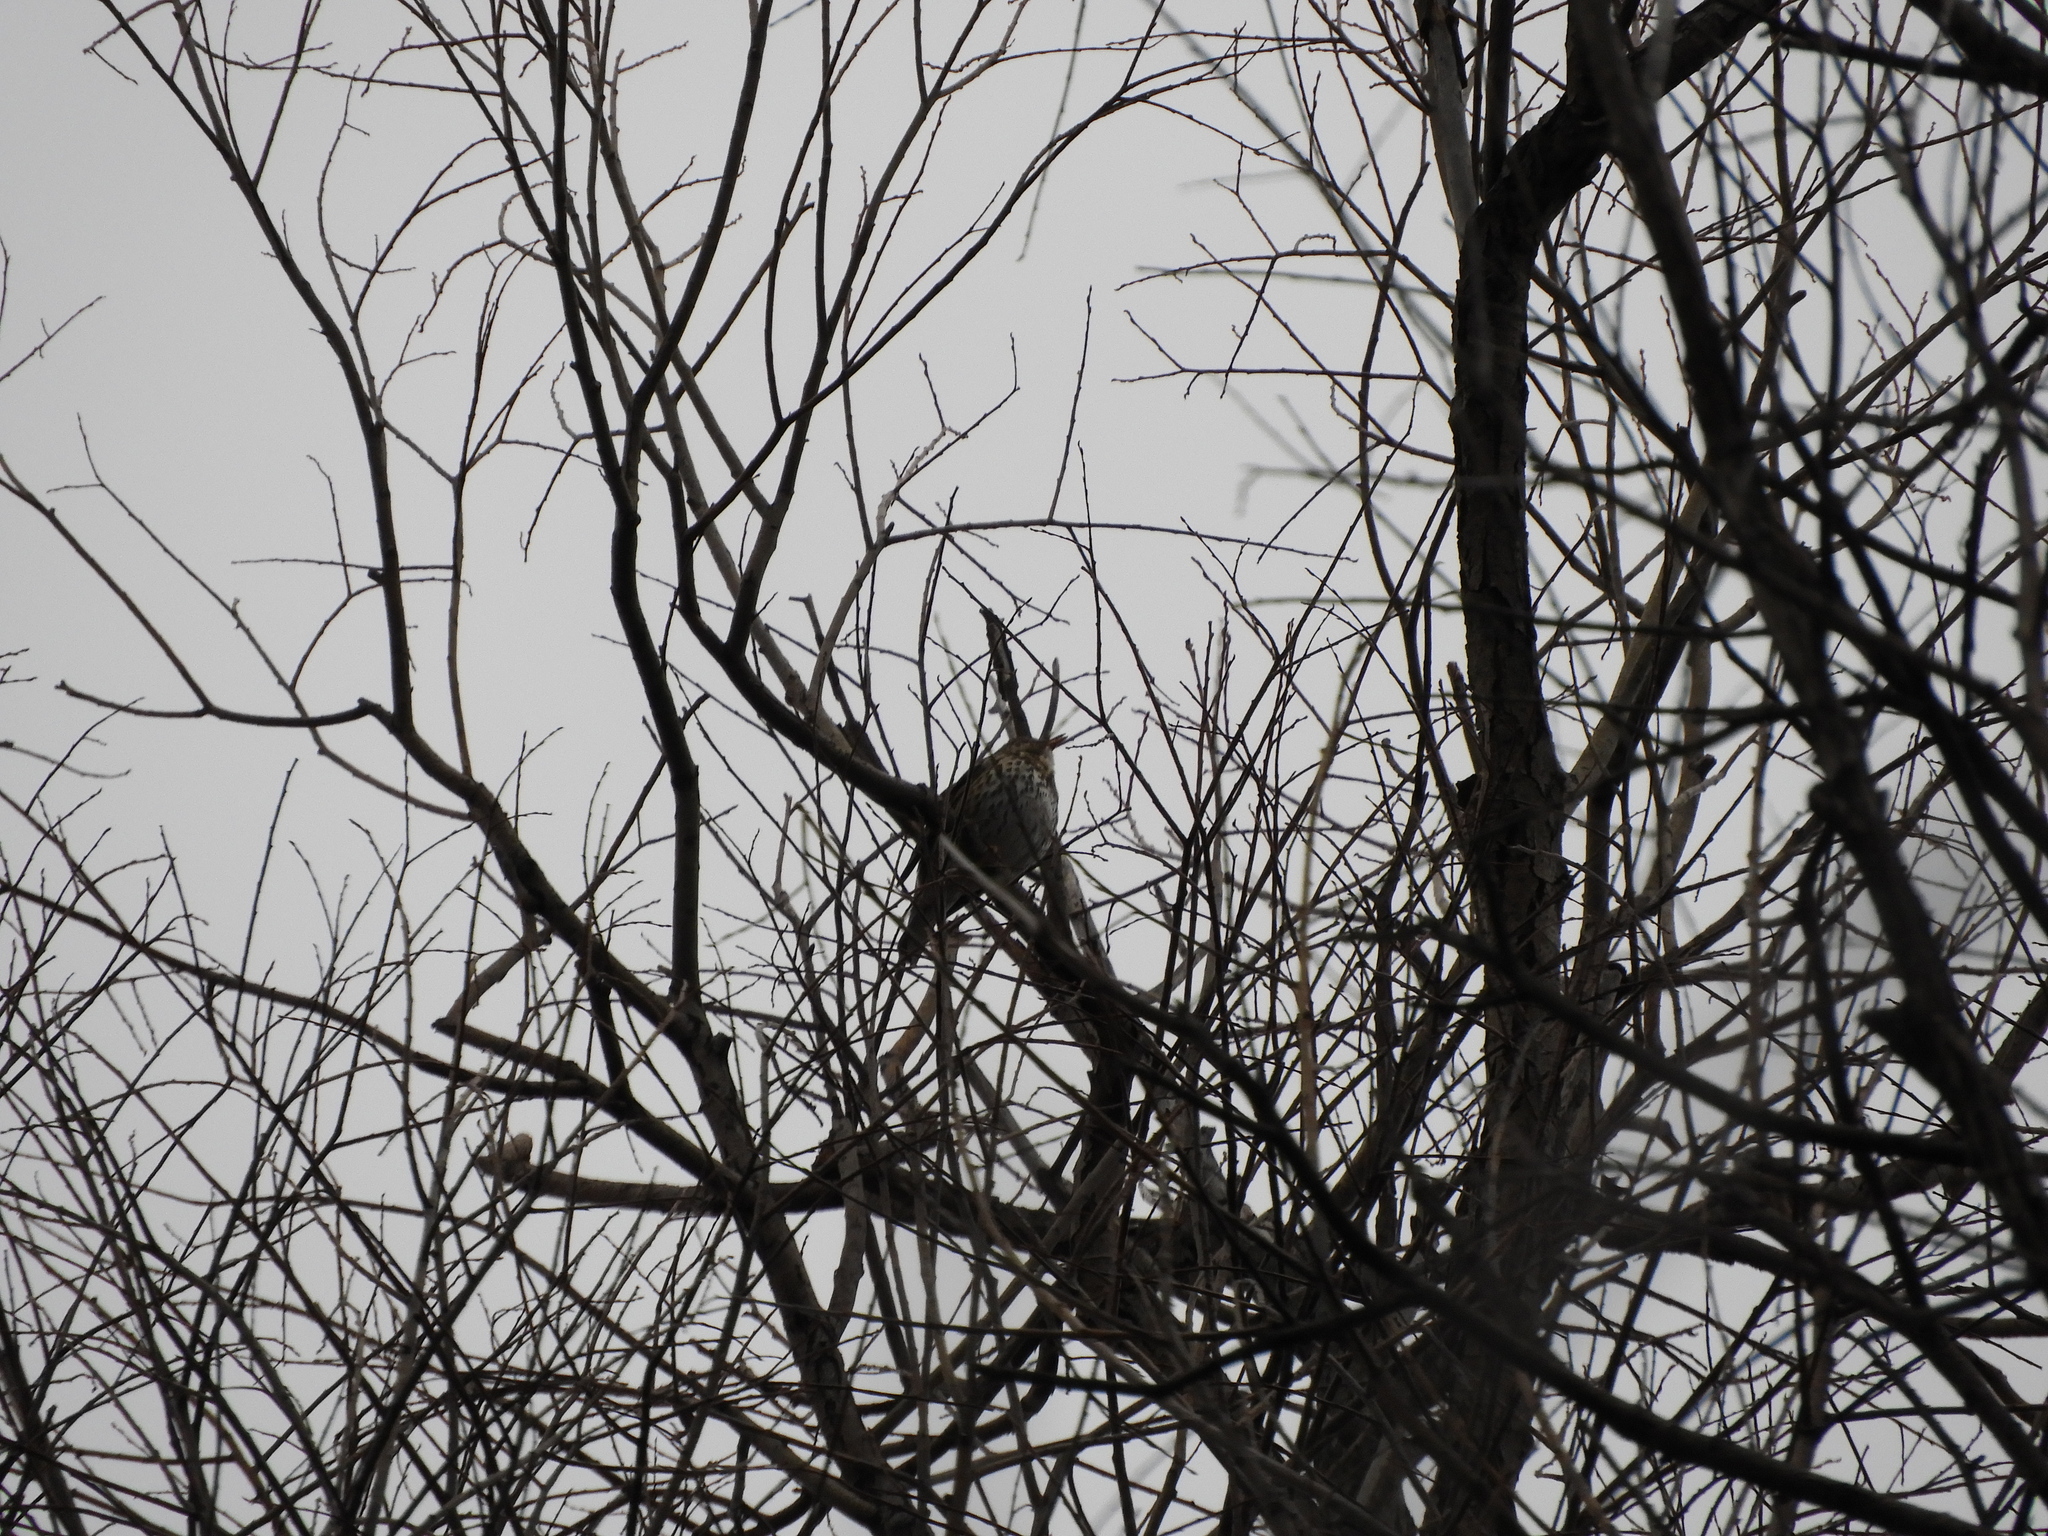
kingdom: Animalia
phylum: Chordata
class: Aves
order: Passeriformes
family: Turdidae
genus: Turdus
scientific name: Turdus philomelos
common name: Song thrush
